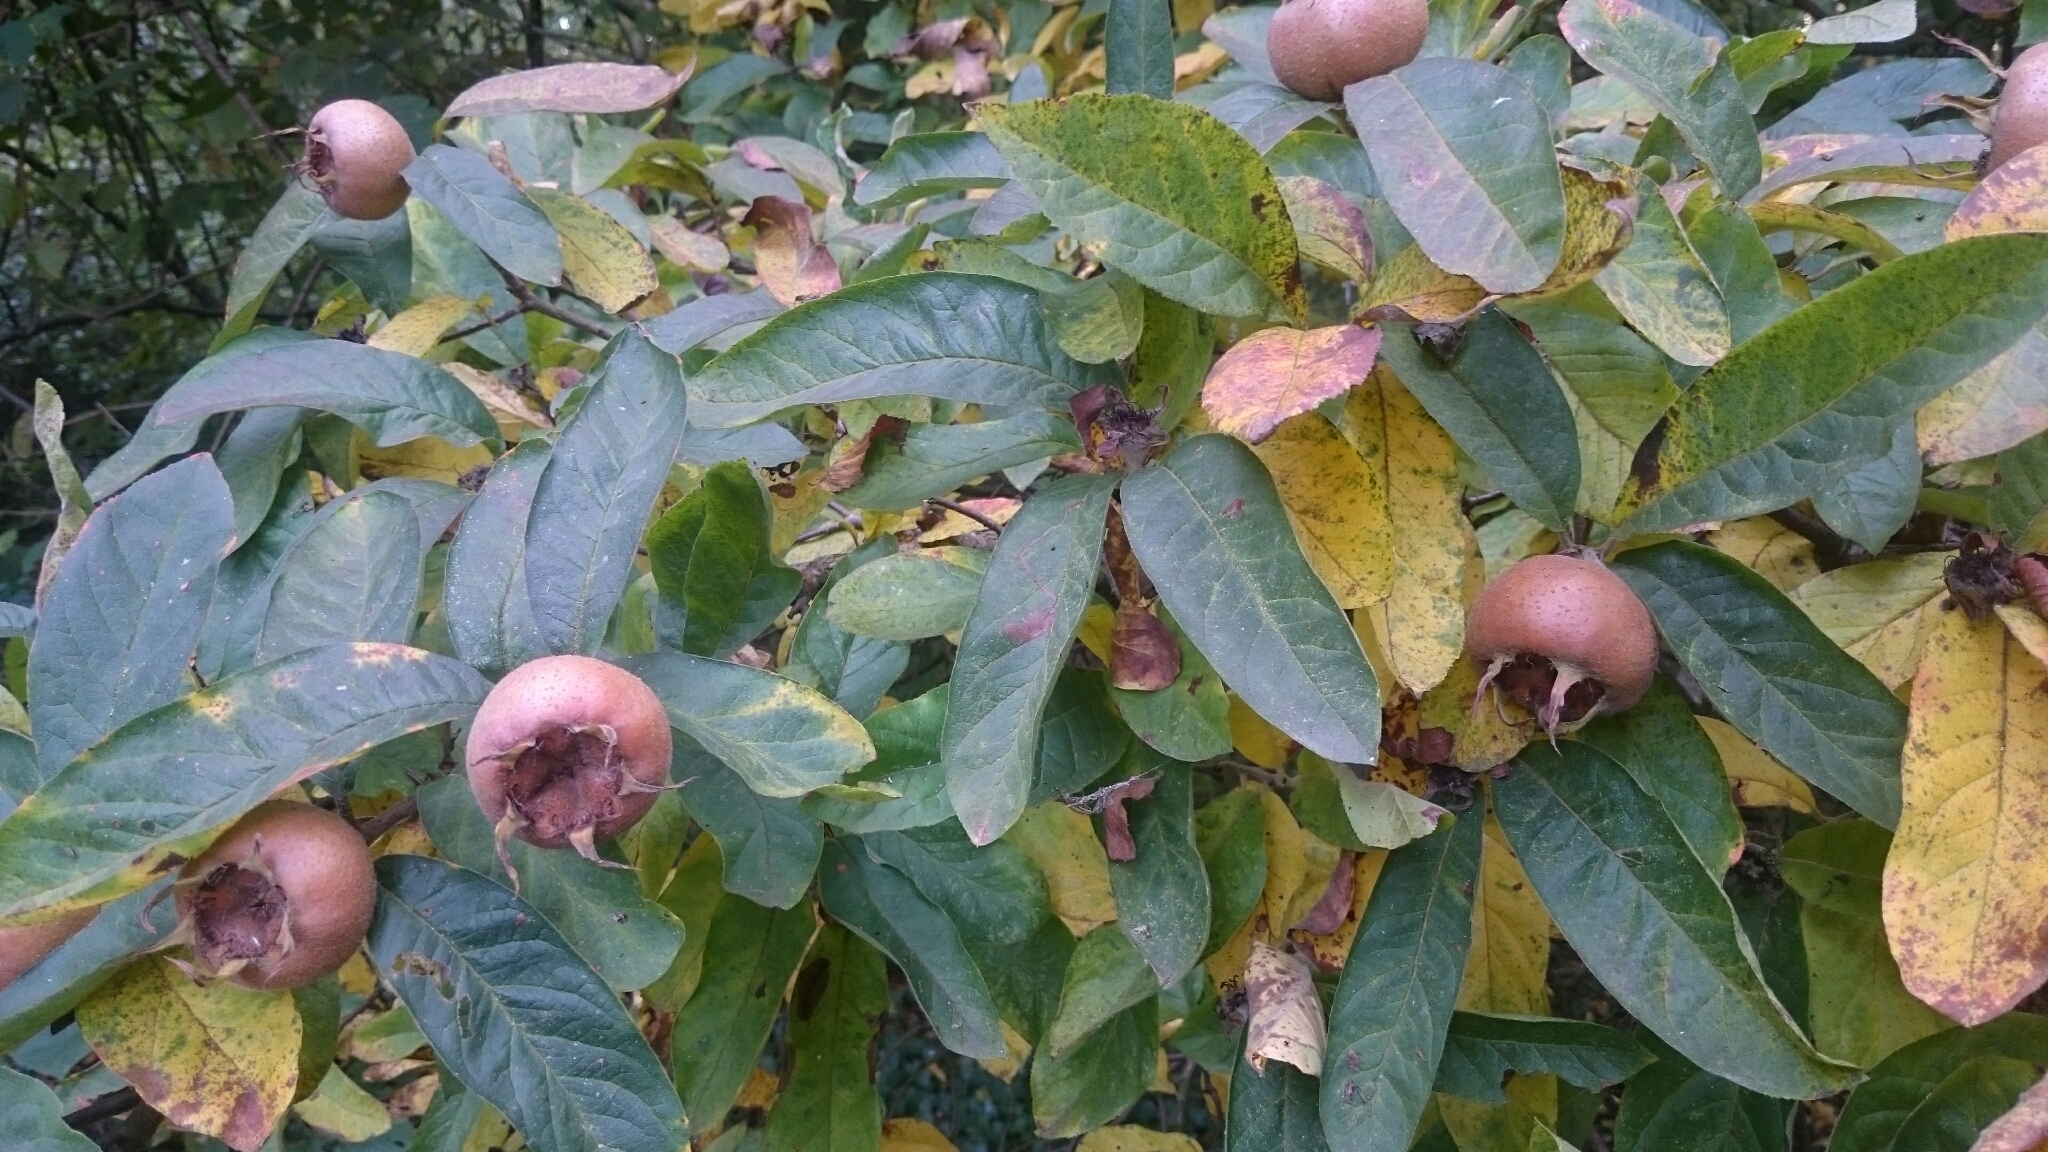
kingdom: Plantae
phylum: Tracheophyta
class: Magnoliopsida
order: Rosales
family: Rosaceae
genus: Mespilus
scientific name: Mespilus germanica
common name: Medlar
